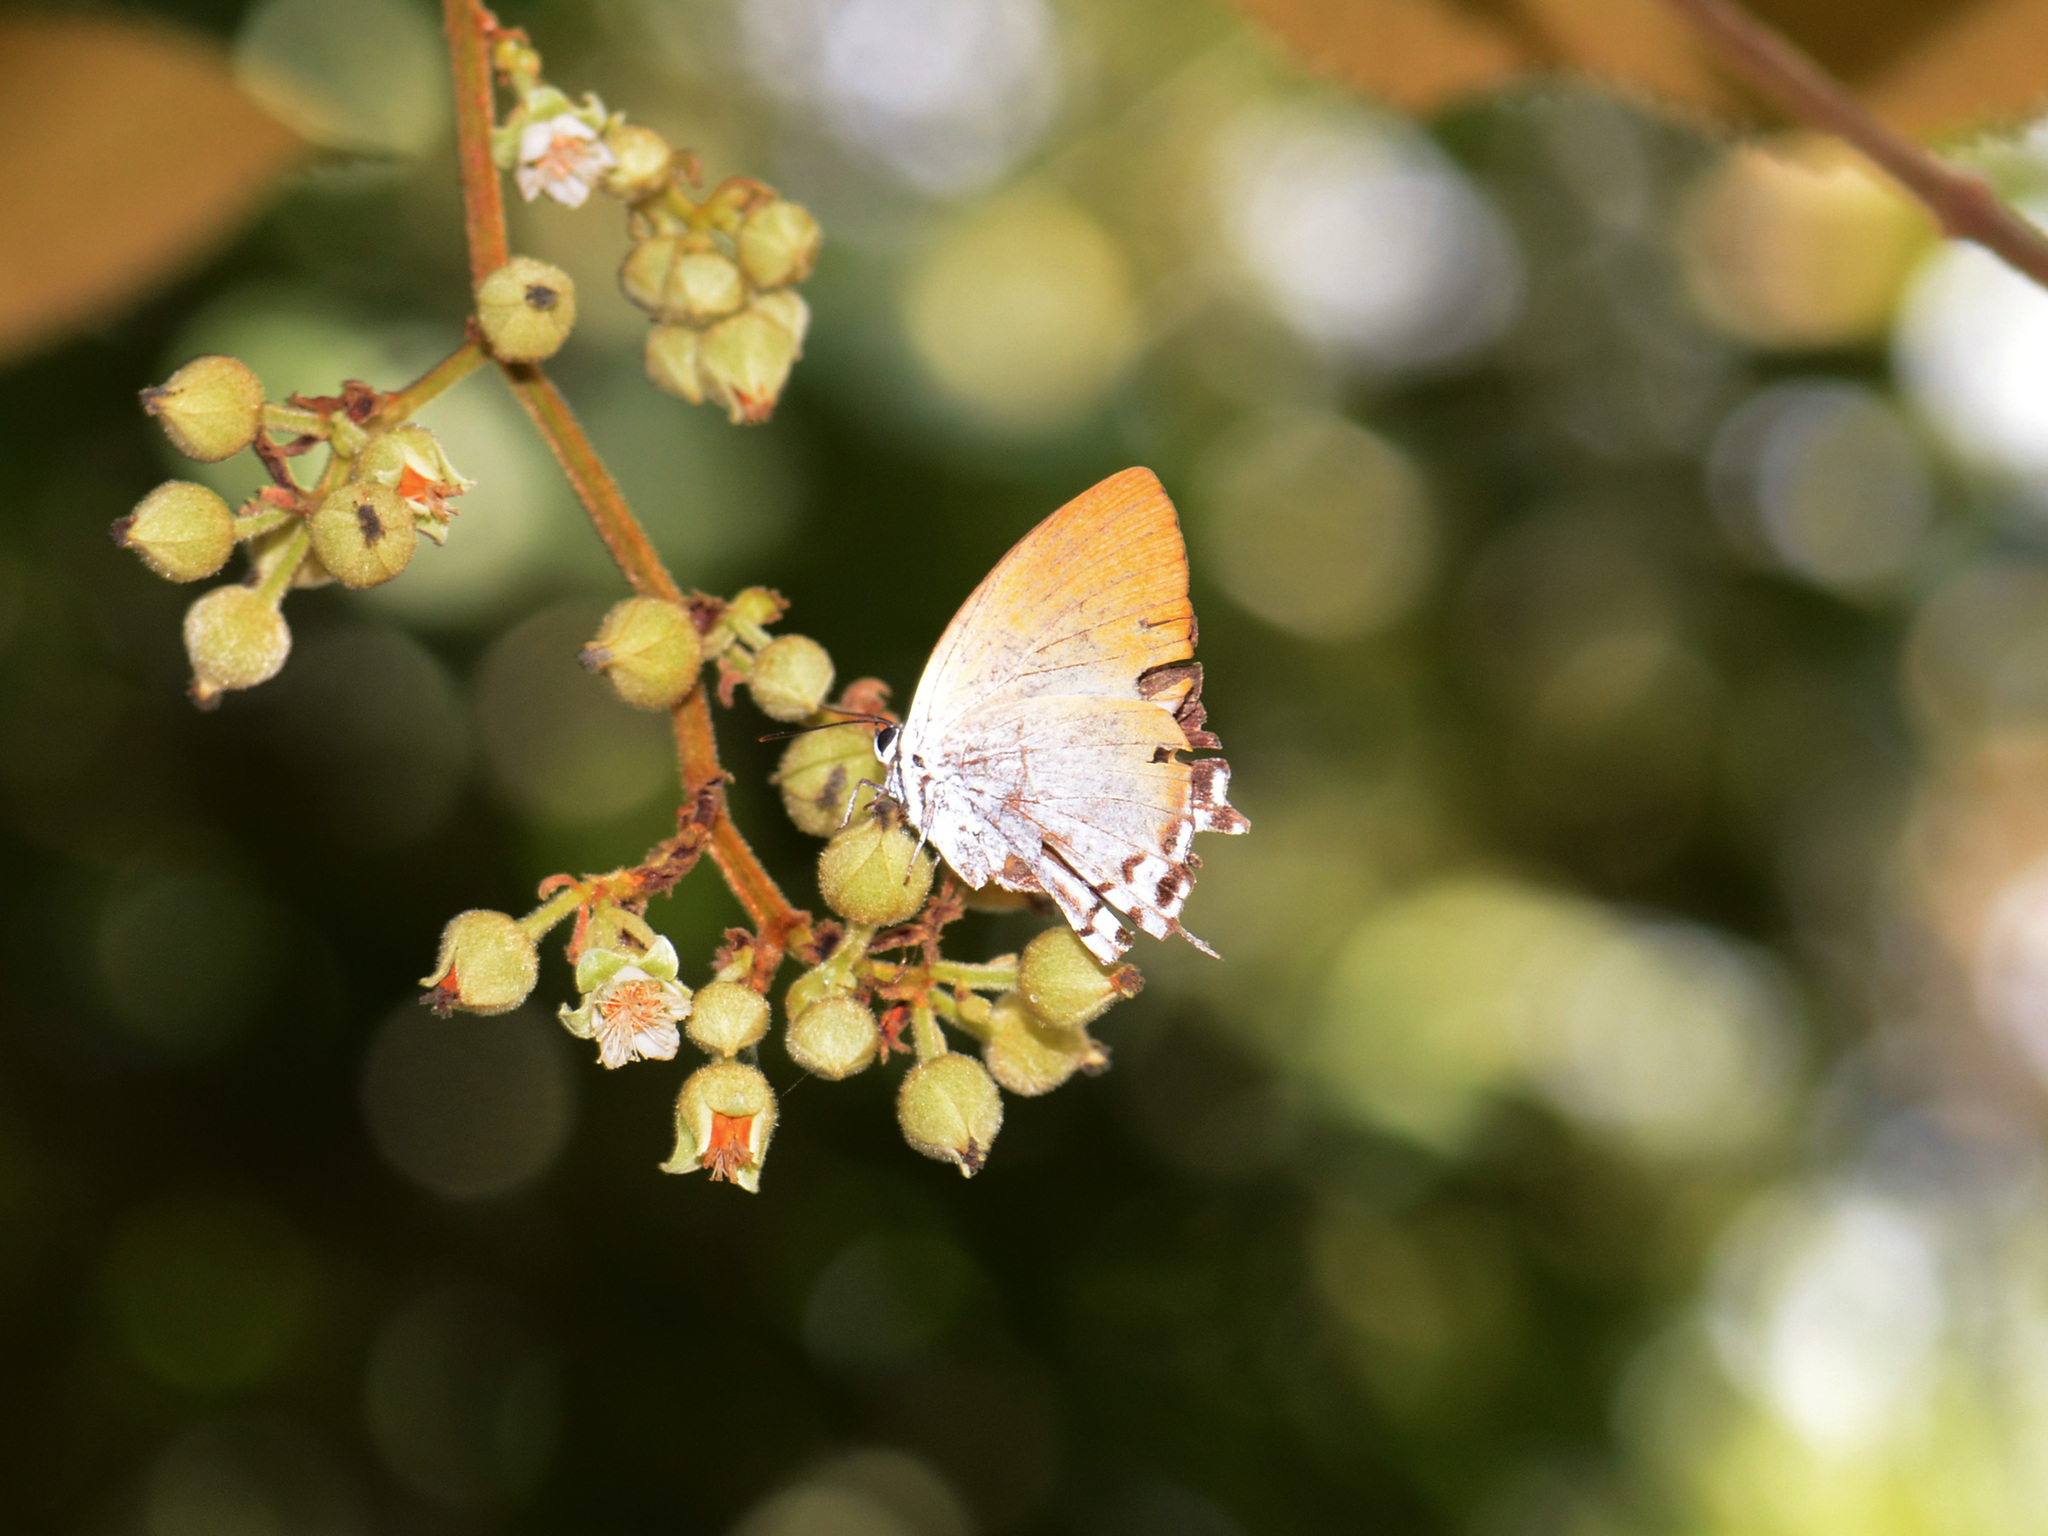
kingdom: Animalia
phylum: Arthropoda
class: Insecta
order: Lepidoptera
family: Lycaenidae
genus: Neocheritra
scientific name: Neocheritra amrita
